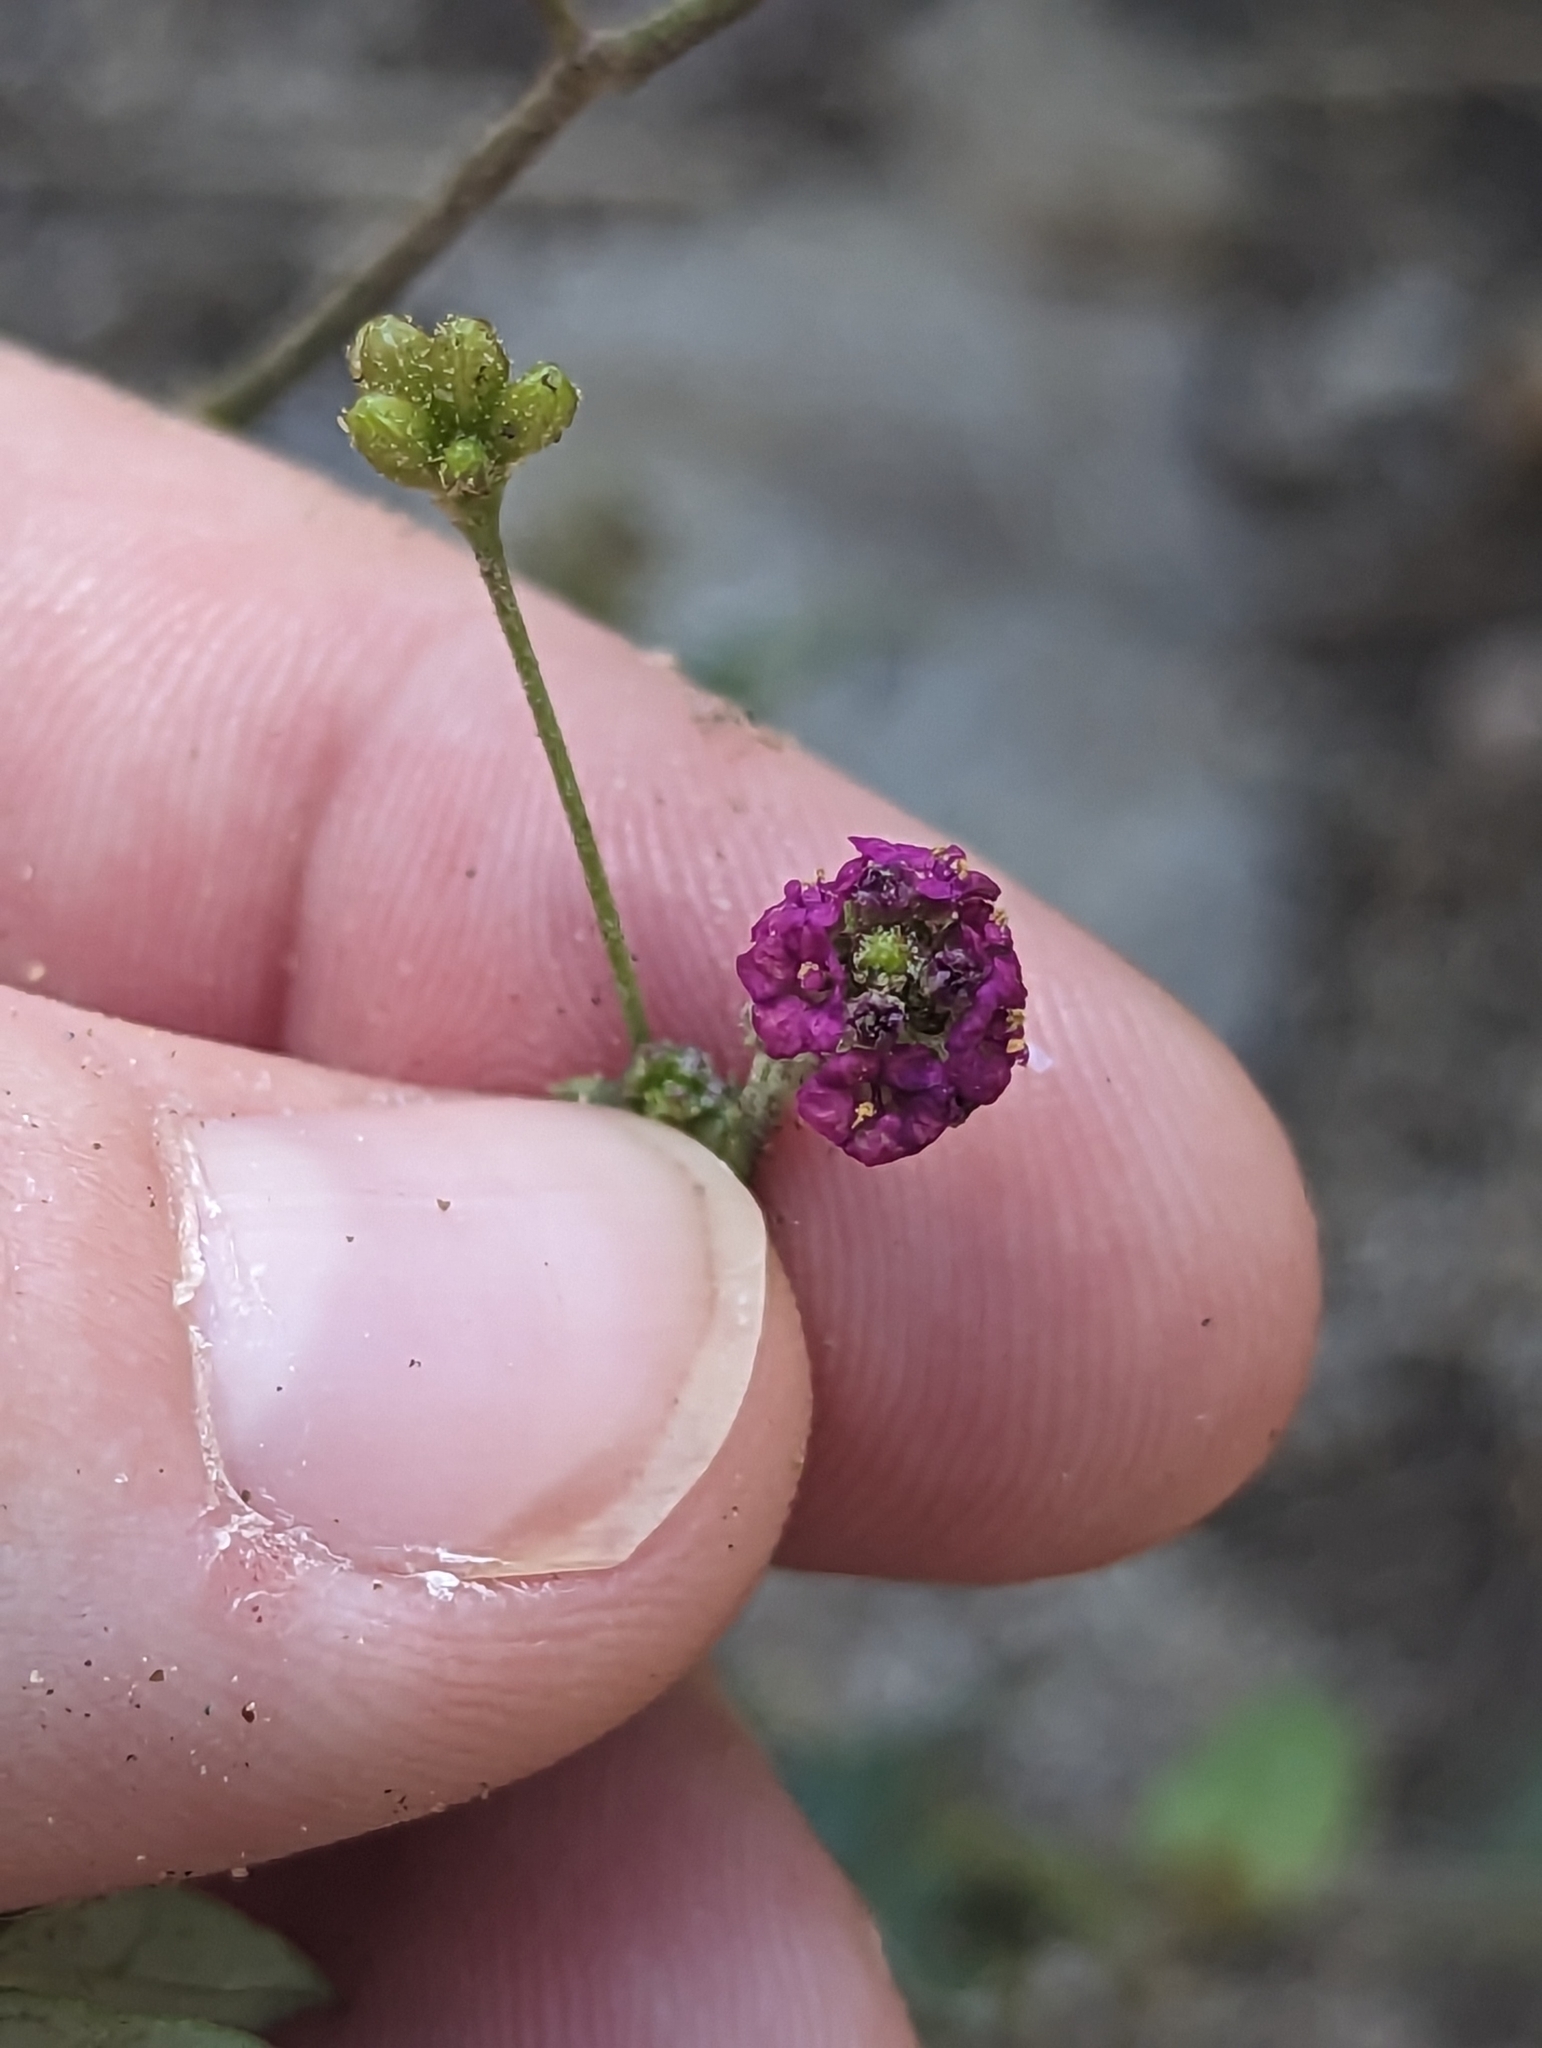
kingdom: Plantae
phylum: Tracheophyta
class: Magnoliopsida
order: Caryophyllales
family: Nyctaginaceae
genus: Boerhavia
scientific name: Boerhavia coccinea
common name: Scarlet spiderling
